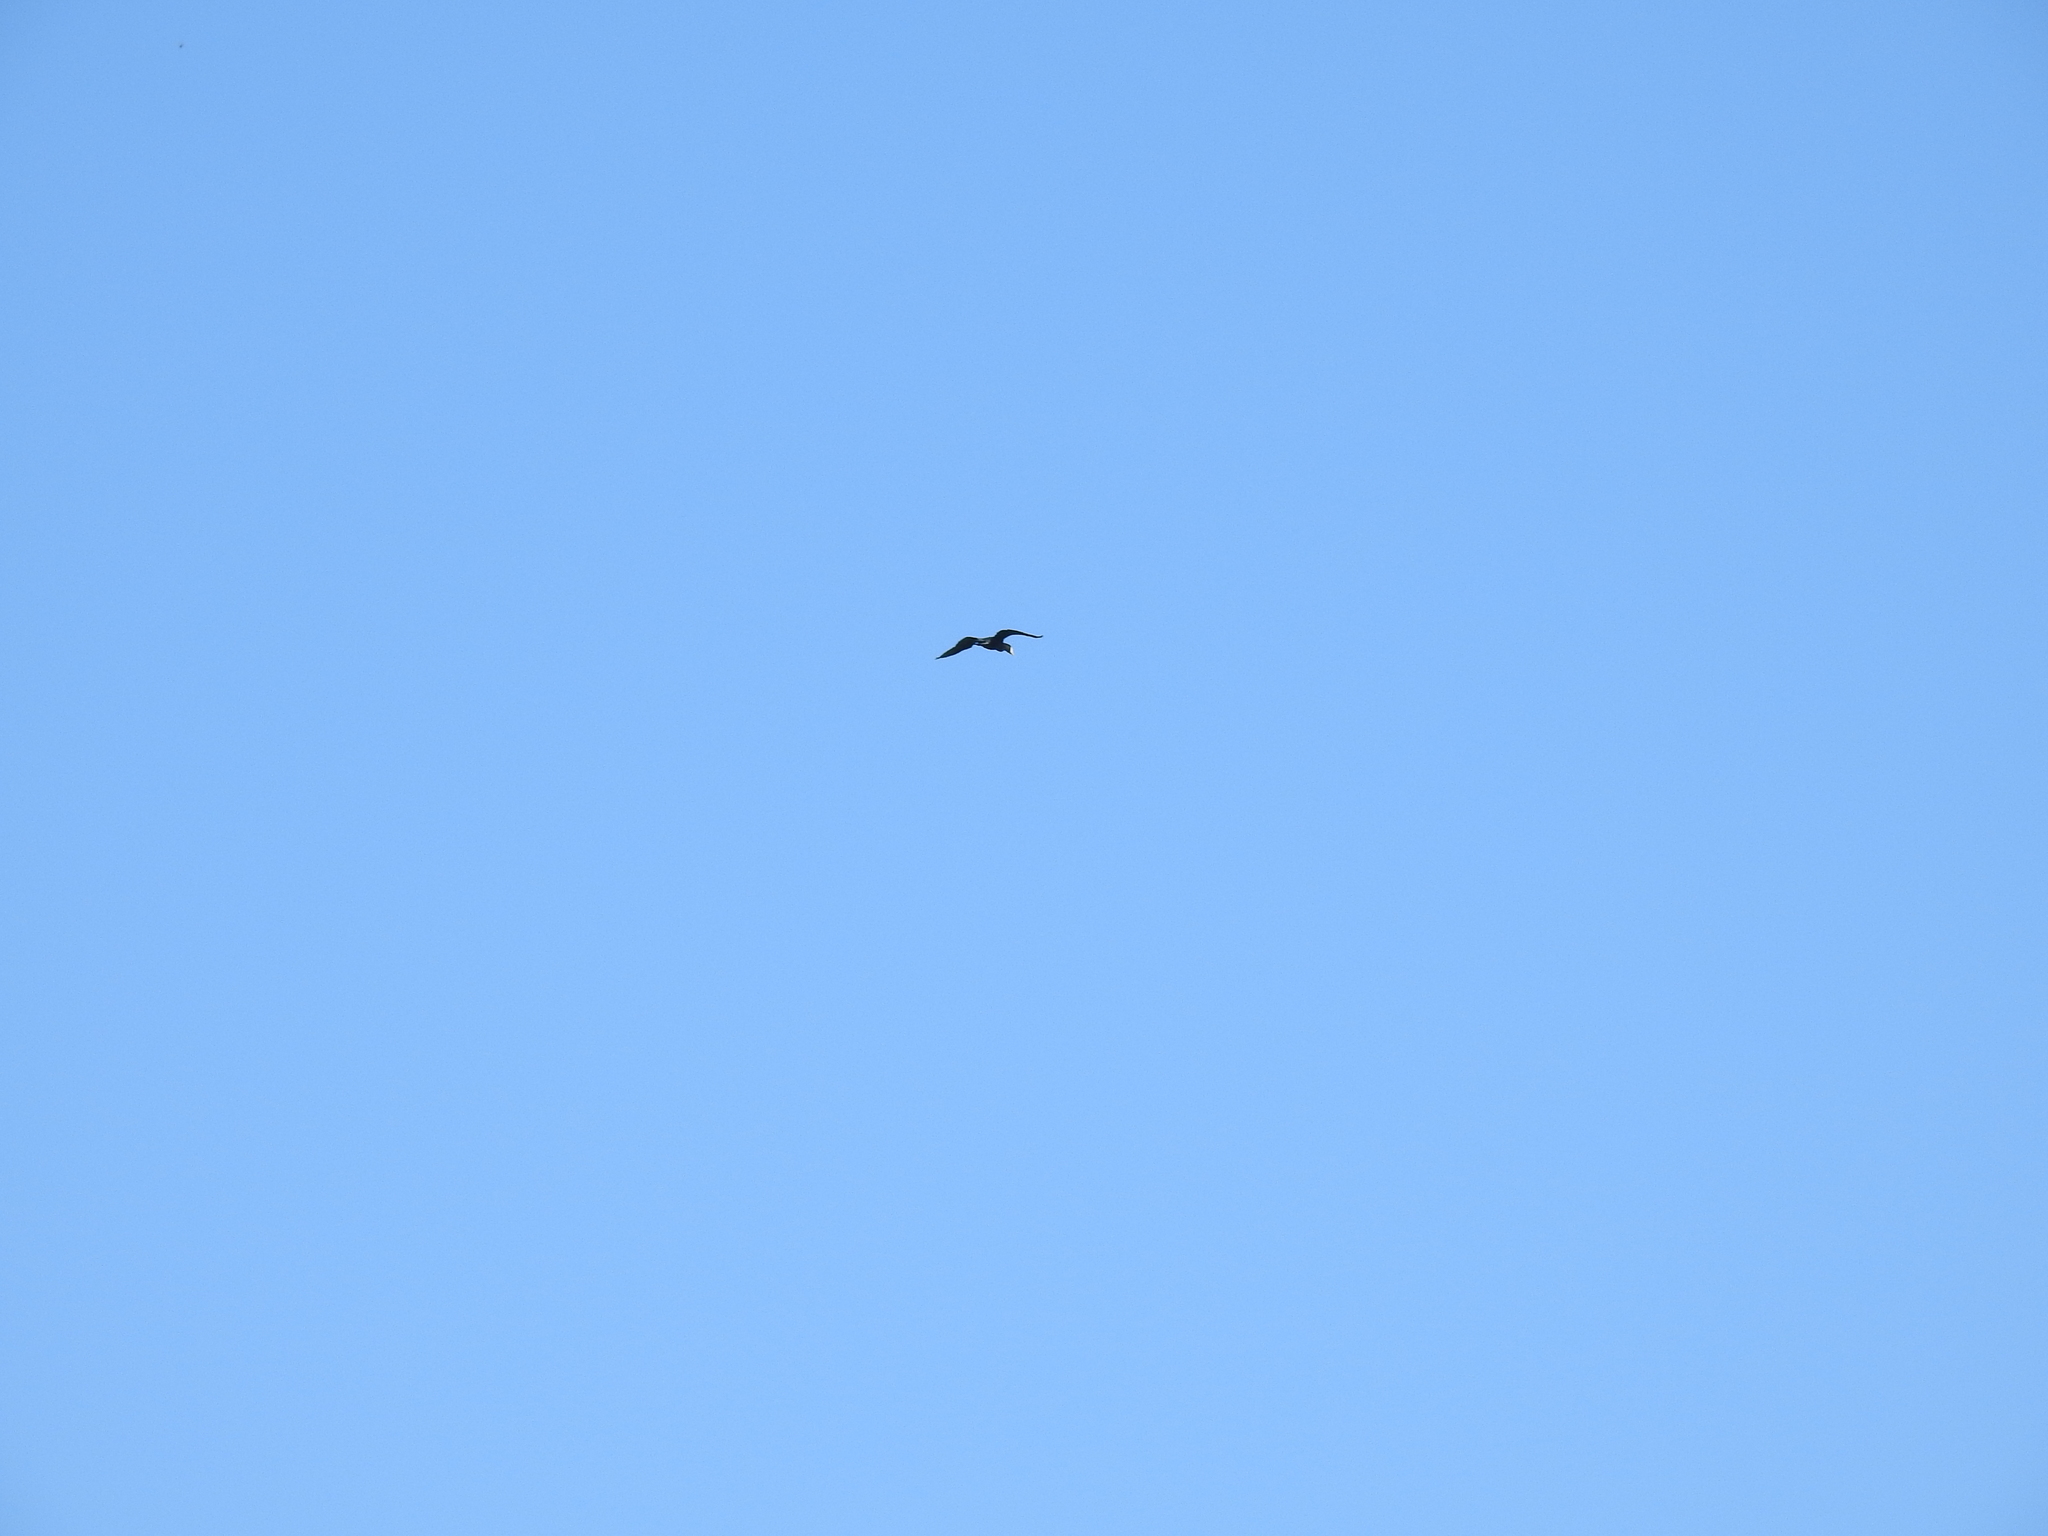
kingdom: Animalia
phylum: Chordata
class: Aves
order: Suliformes
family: Phalacrocoracidae
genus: Phalacrocorax
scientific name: Phalacrocorax carbo
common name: Great cormorant
